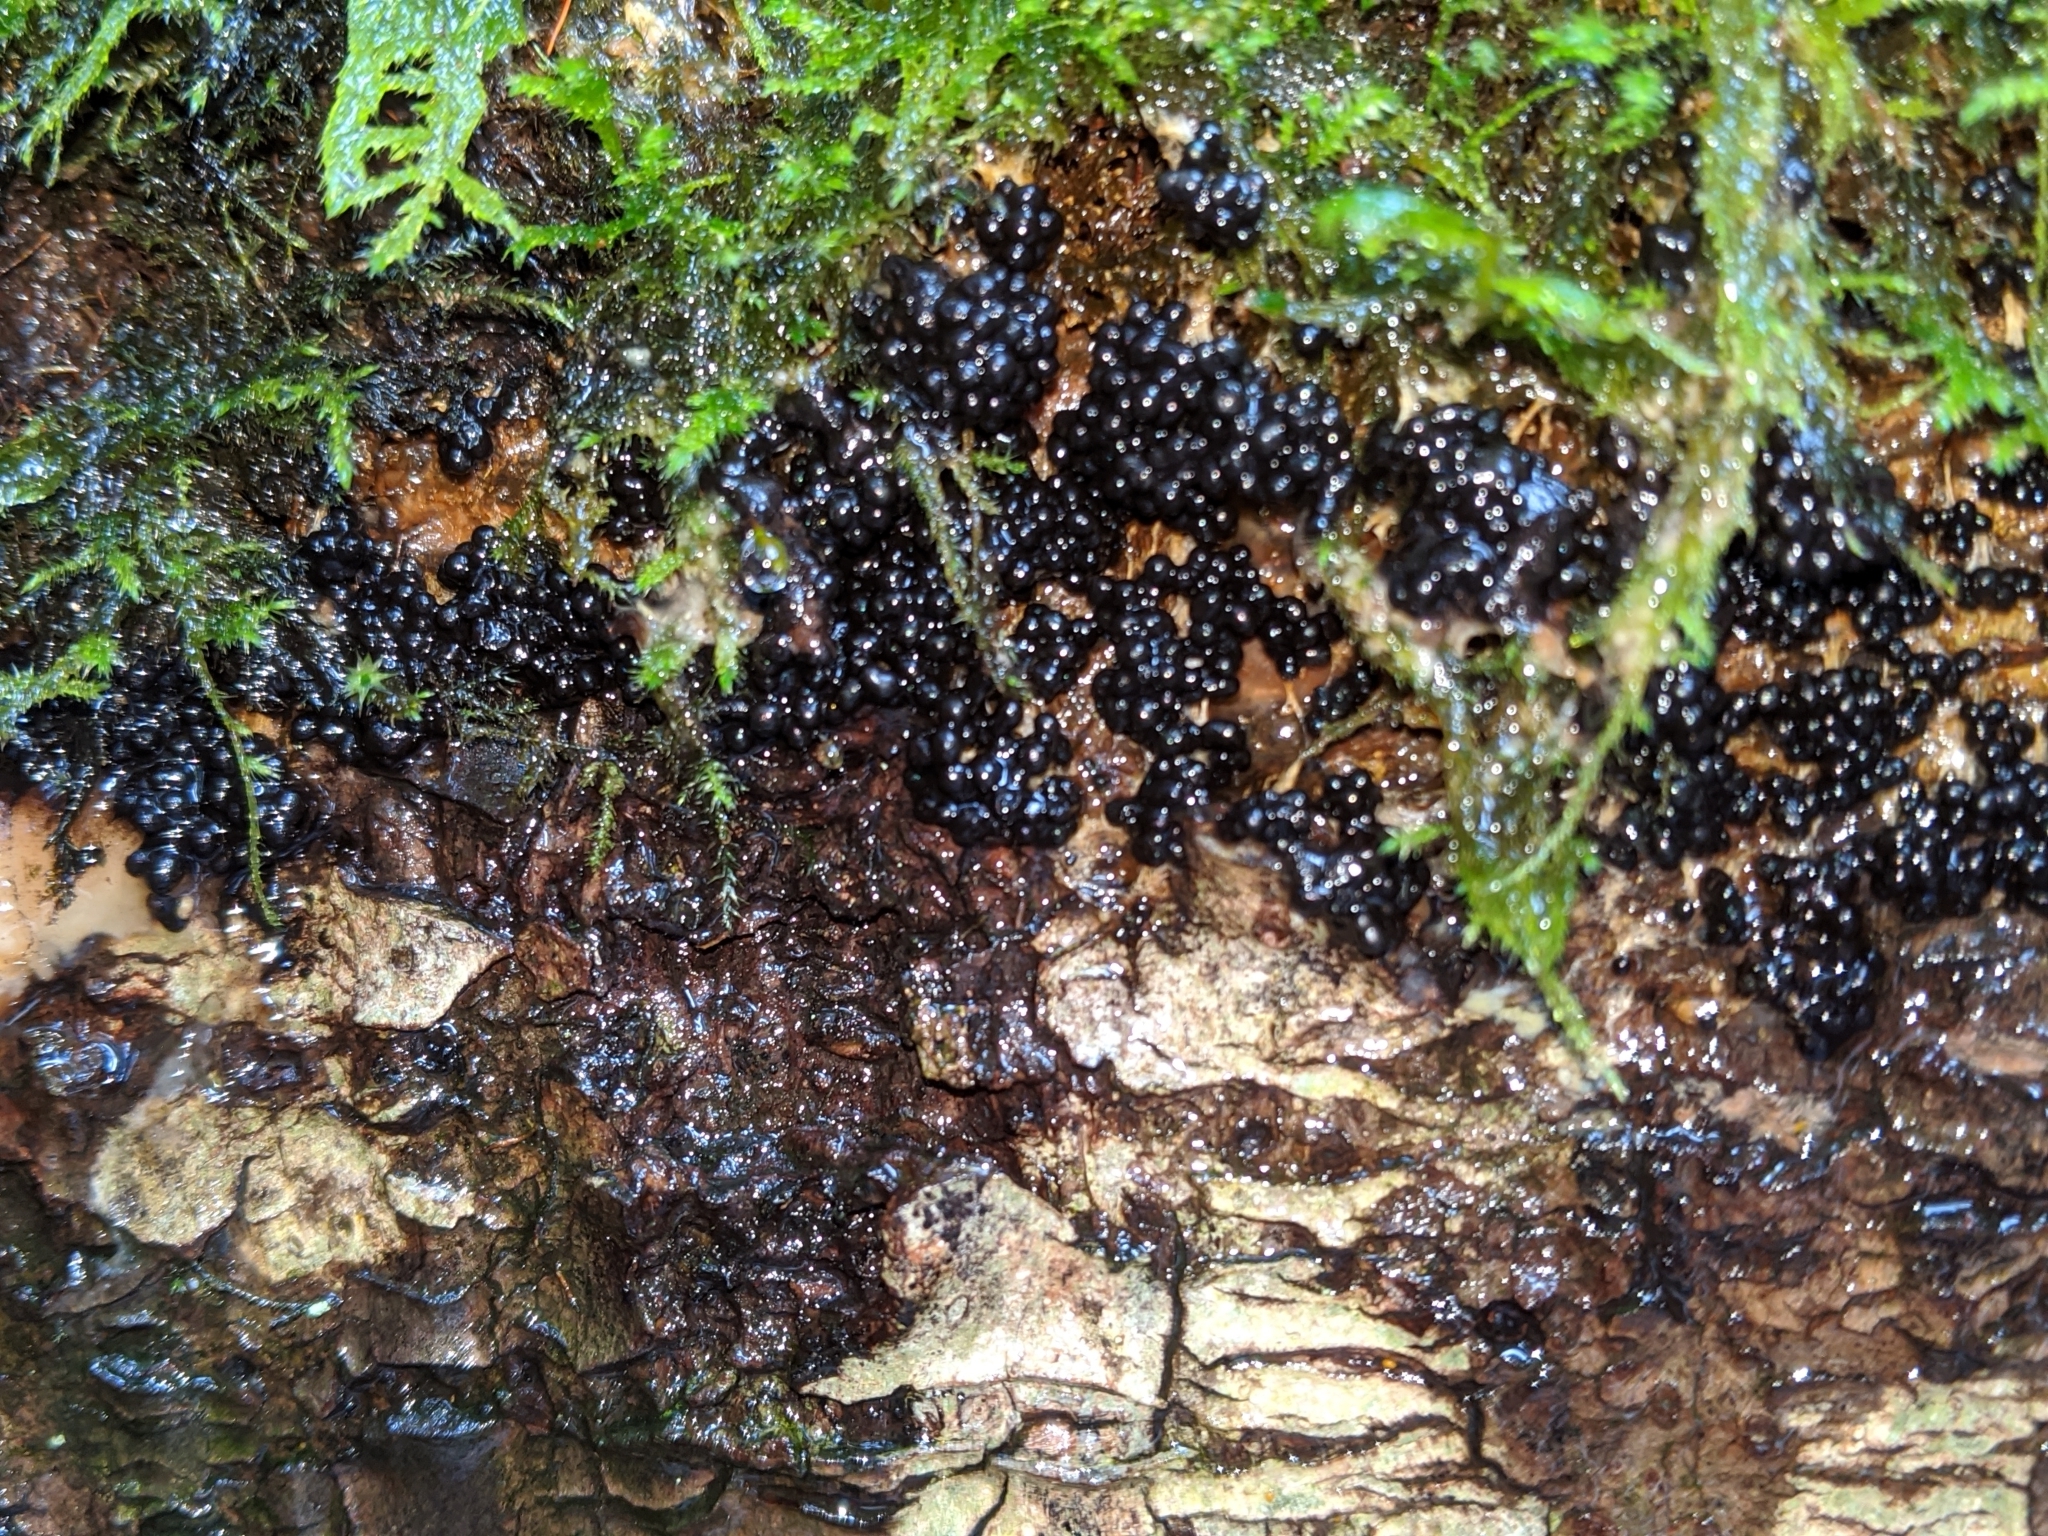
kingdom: Protozoa
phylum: Mycetozoa
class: Myxomycetes
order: Physarales
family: Physaraceae
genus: Badhamia
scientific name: Badhamia utricularis
